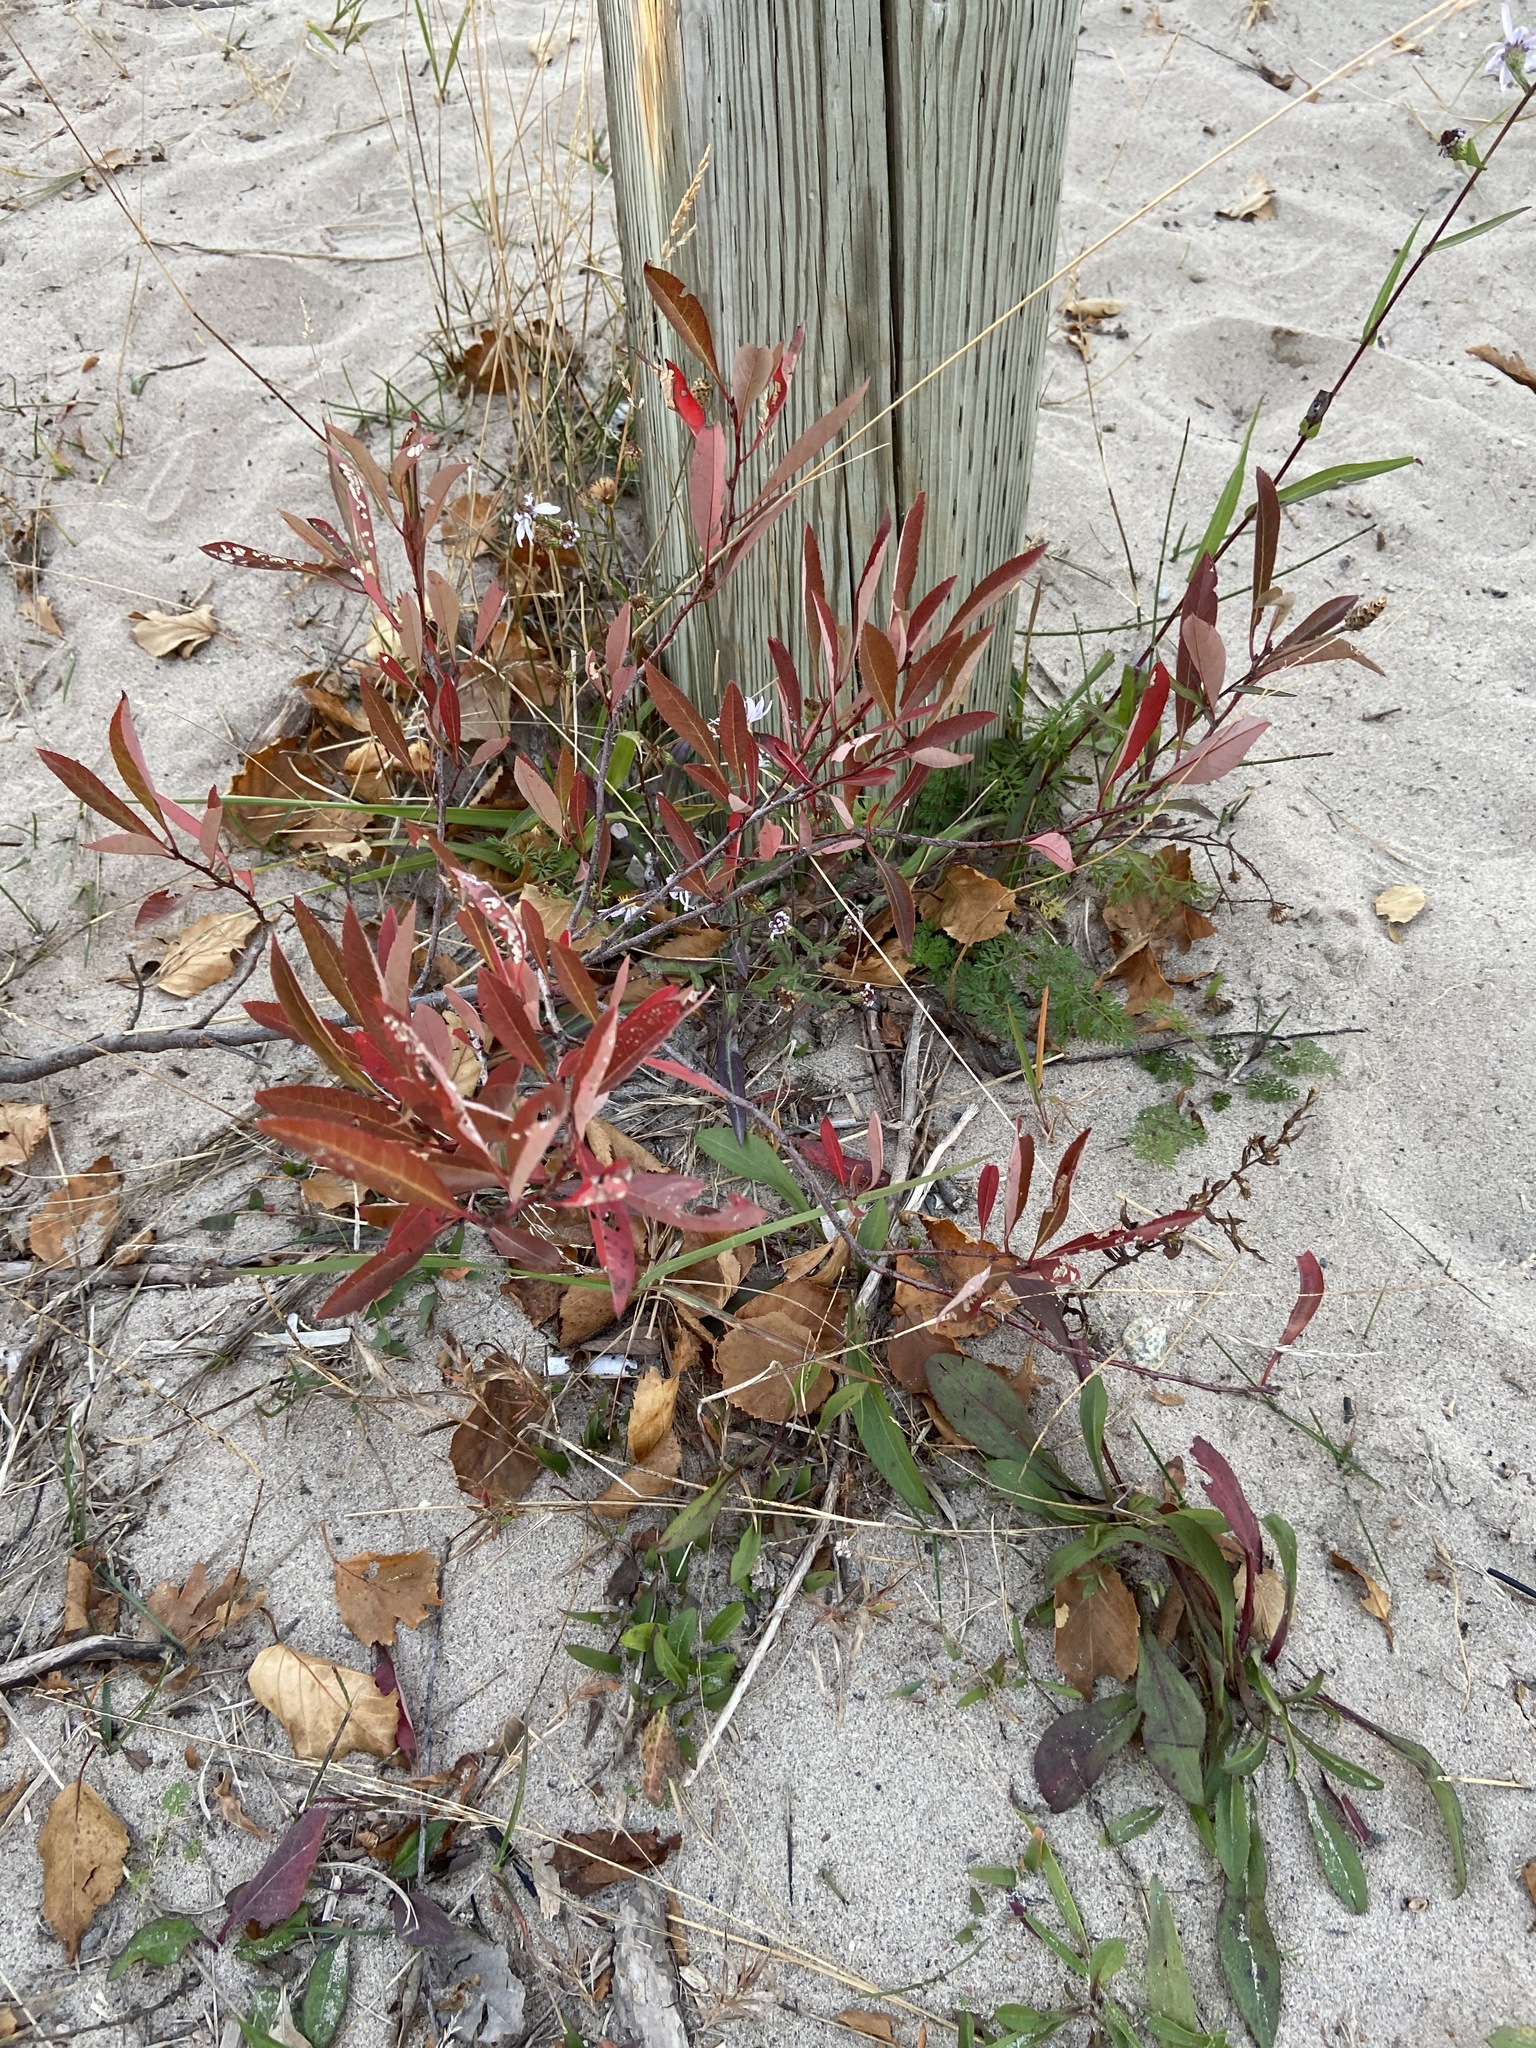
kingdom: Plantae
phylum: Tracheophyta
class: Magnoliopsida
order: Rosales
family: Rosaceae
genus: Prunus
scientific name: Prunus pumila
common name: Dwarf cherry
